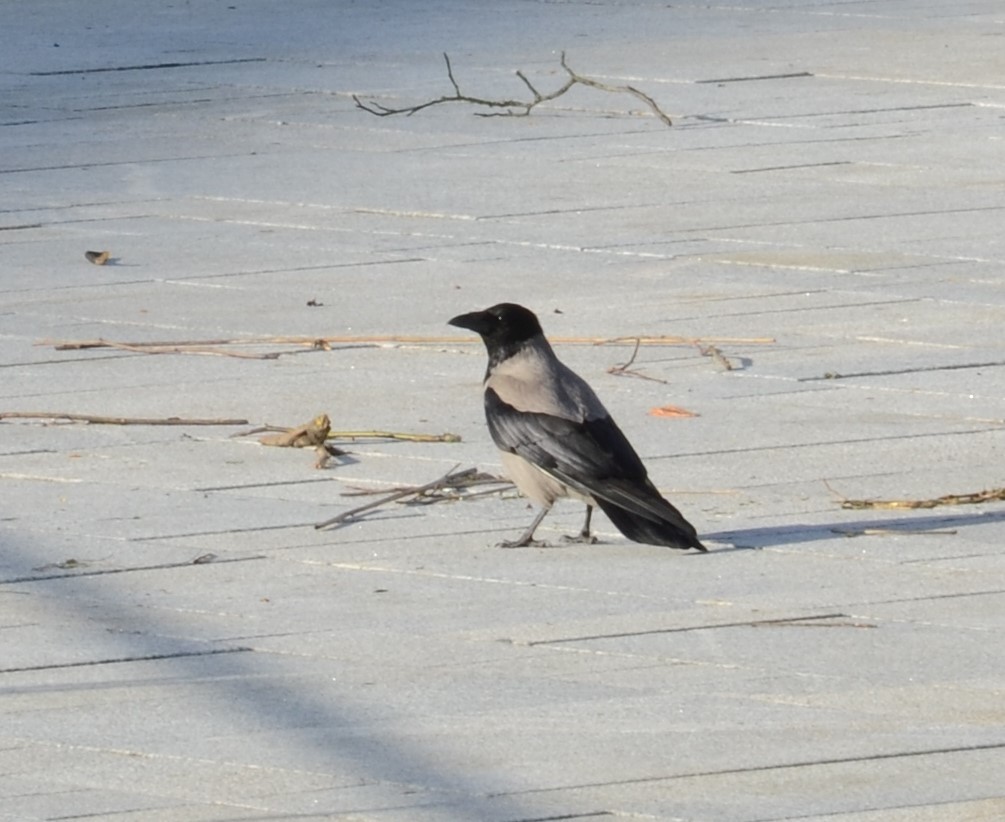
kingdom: Animalia
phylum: Chordata
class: Aves
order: Passeriformes
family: Corvidae
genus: Corvus
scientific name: Corvus cornix
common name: Hooded crow
